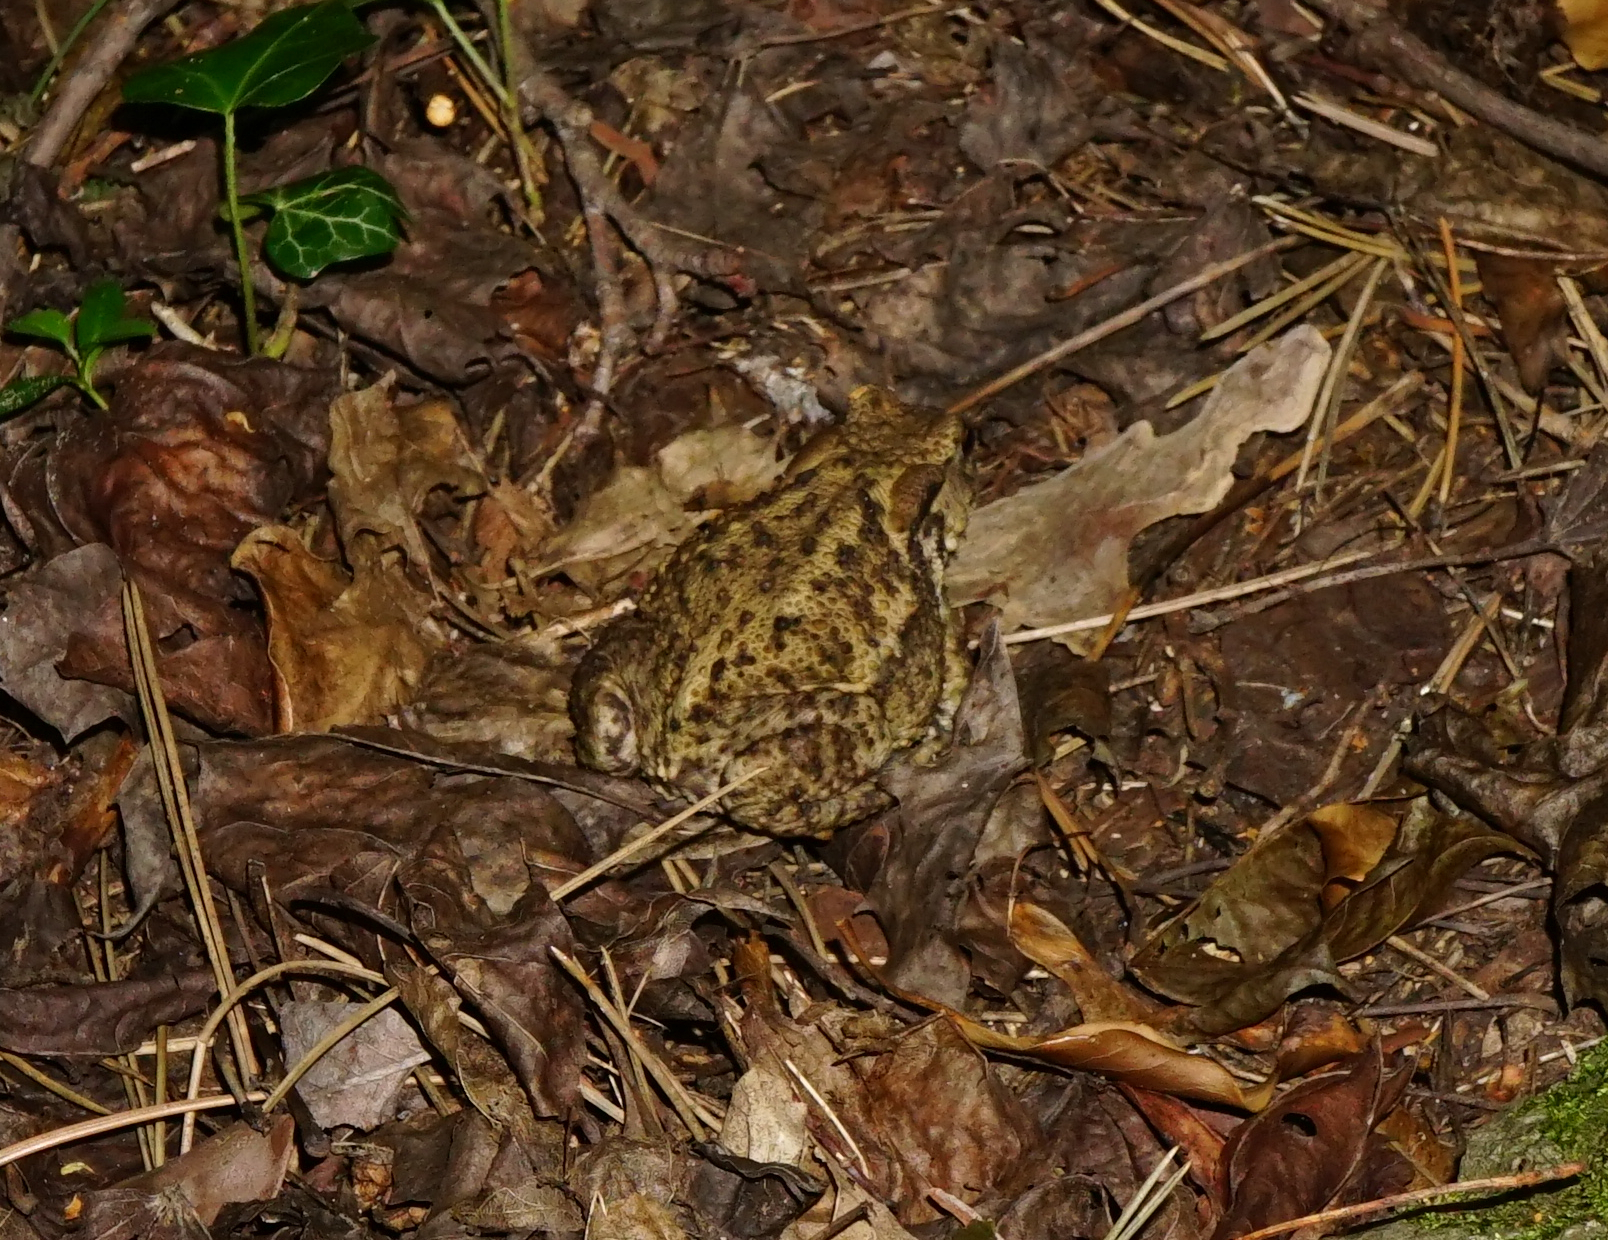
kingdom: Animalia
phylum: Chordata
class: Amphibia
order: Anura
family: Bufonidae
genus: Bufo
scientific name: Bufo bufo
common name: Common toad
